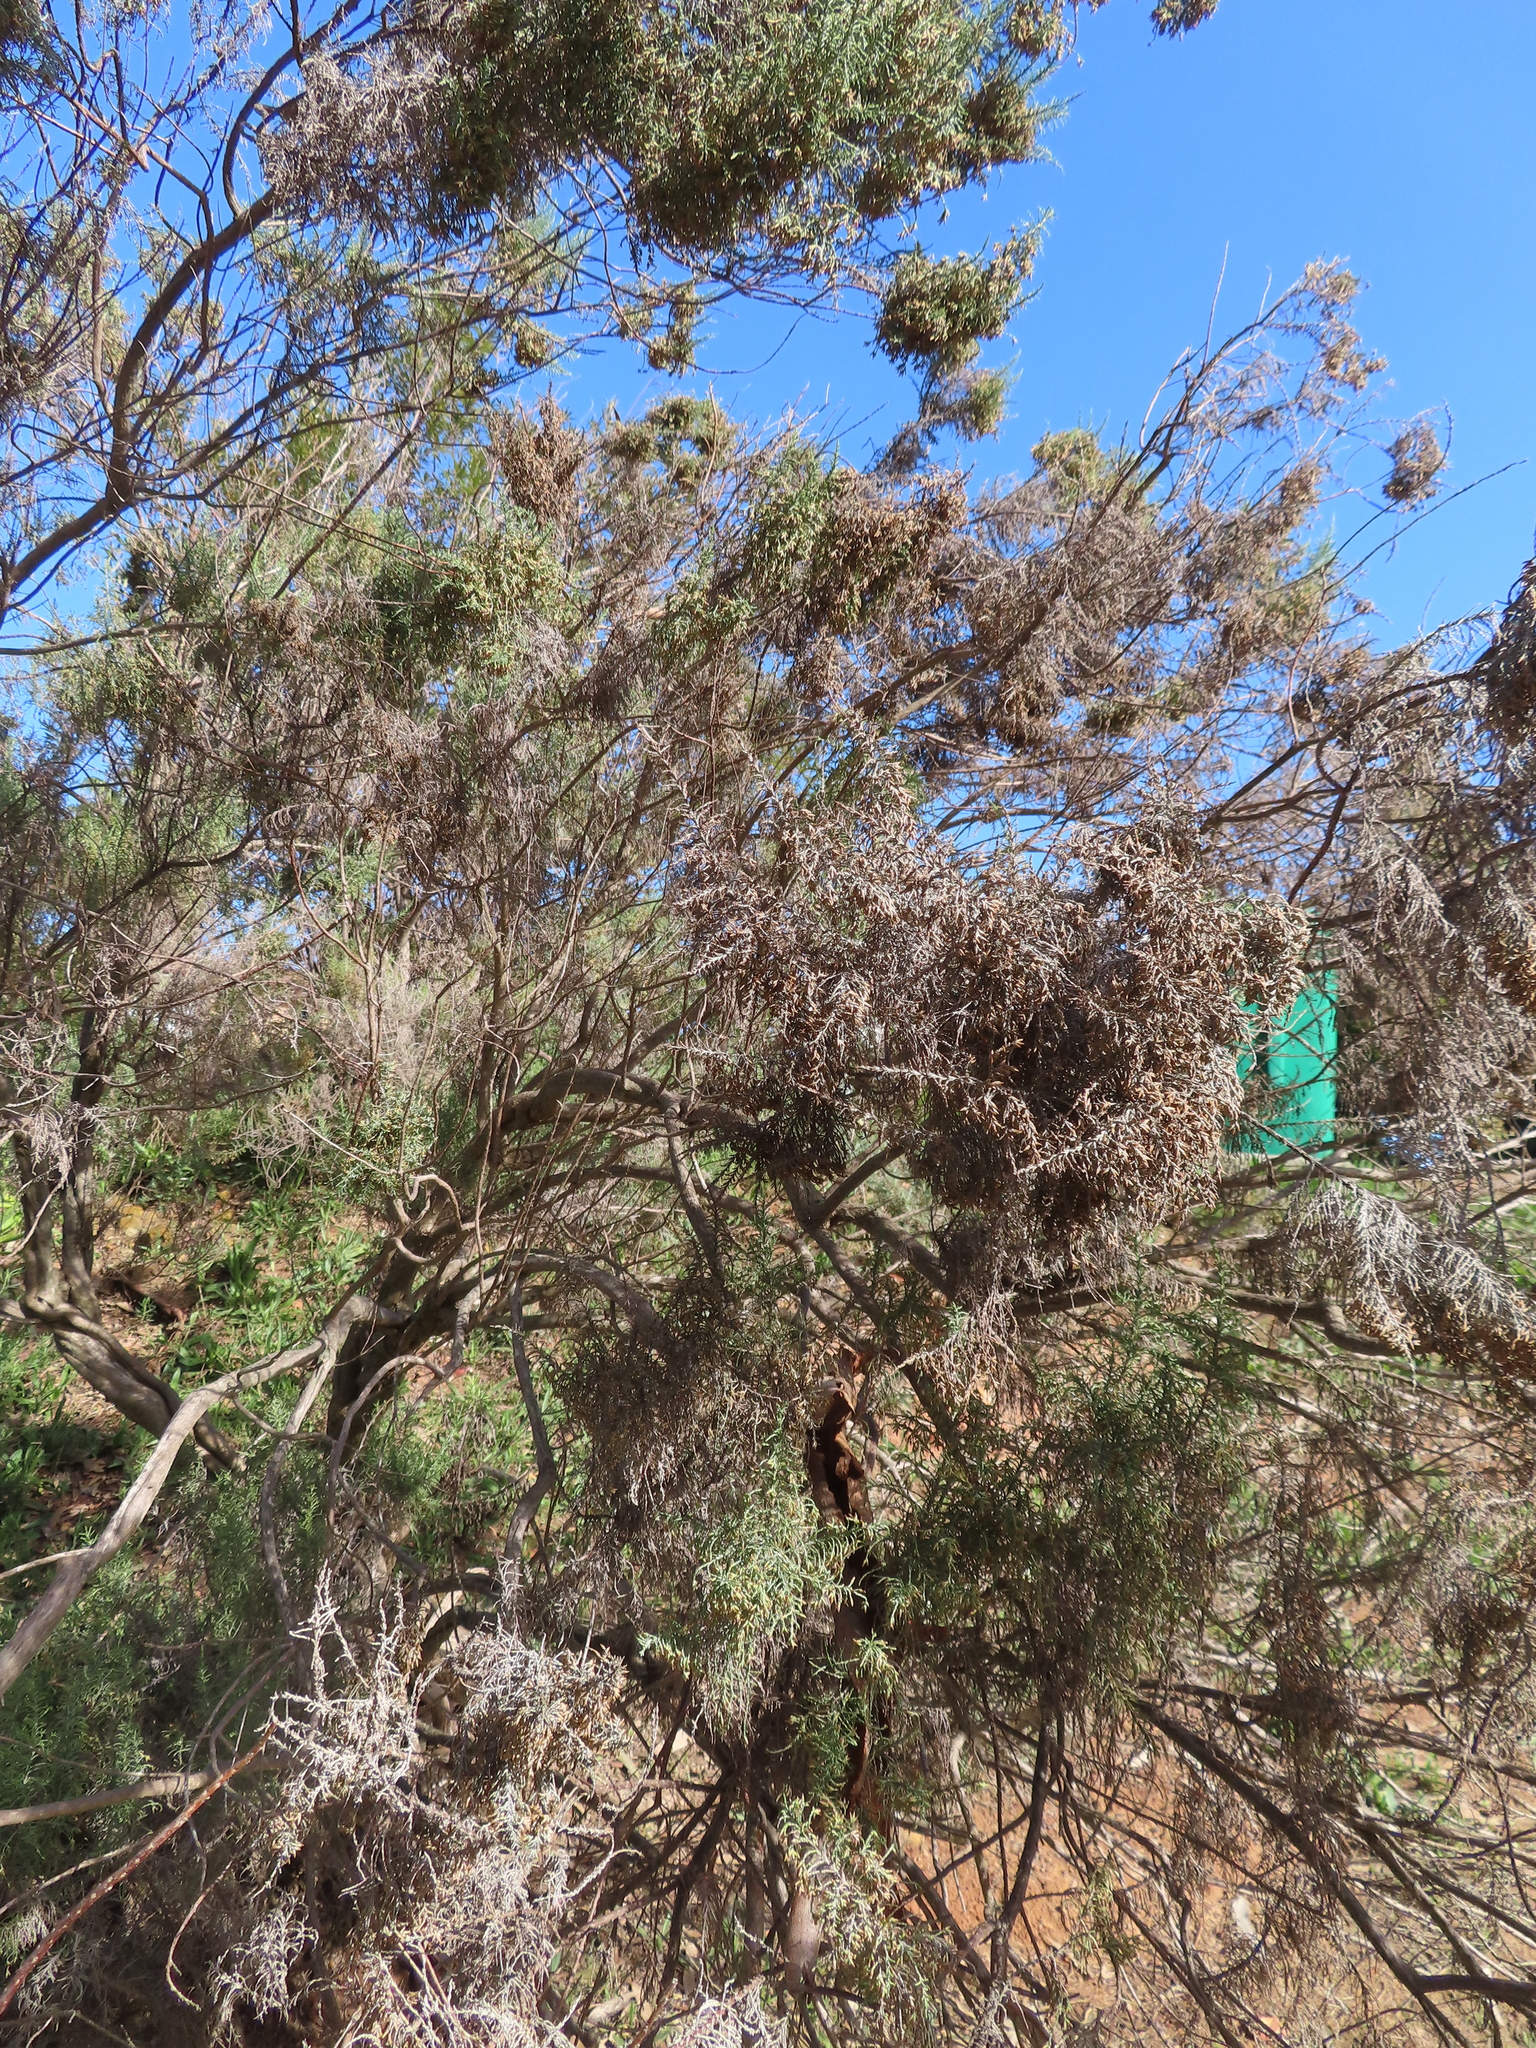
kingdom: Plantae
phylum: Tracheophyta
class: Magnoliopsida
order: Asterales
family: Asteraceae
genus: Dicerothamnus
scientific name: Dicerothamnus rhinocerotis
